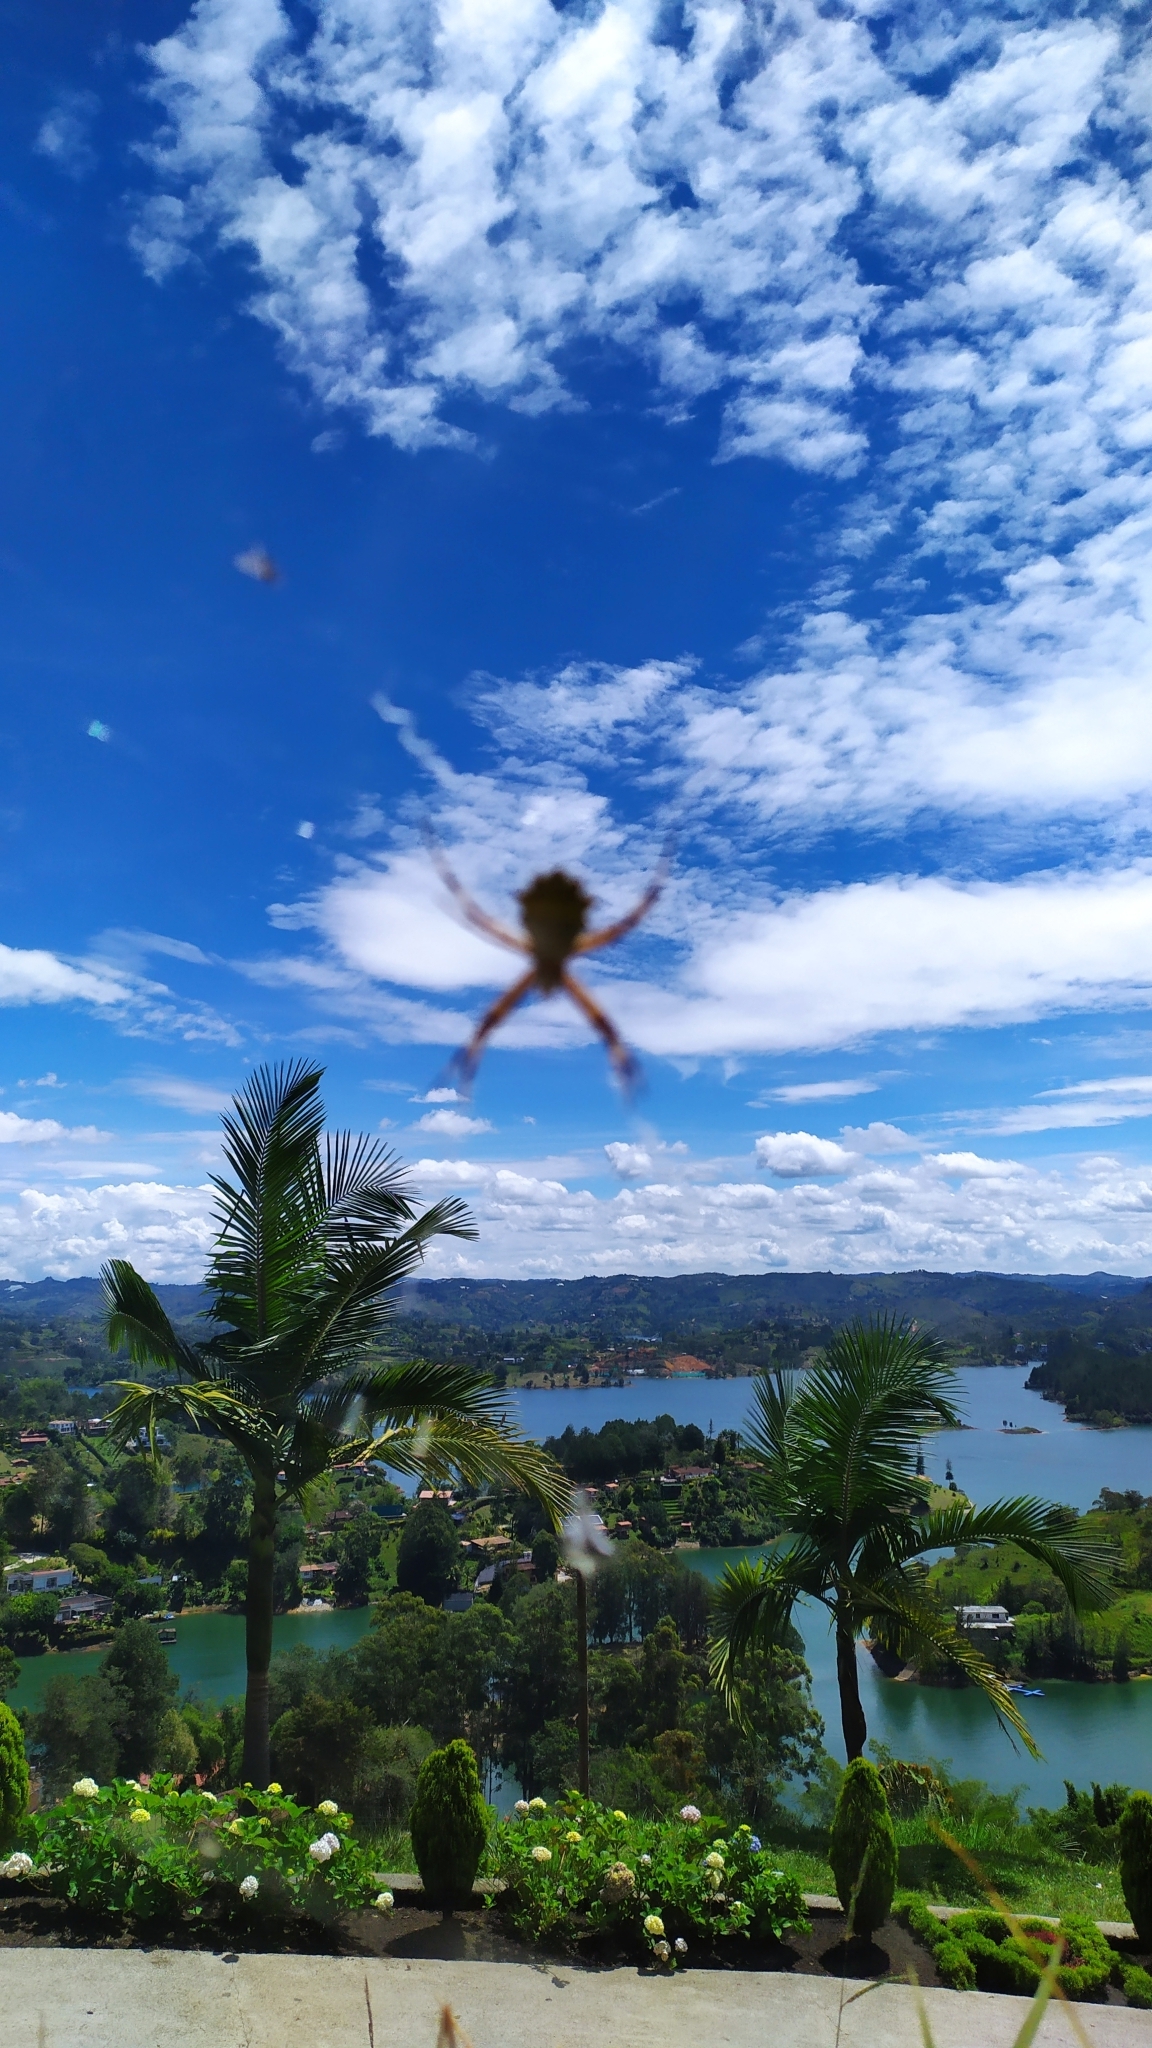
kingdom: Animalia
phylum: Arthropoda
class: Arachnida
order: Araneae
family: Araneidae
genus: Argiope
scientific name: Argiope argentata
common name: Orb weavers
